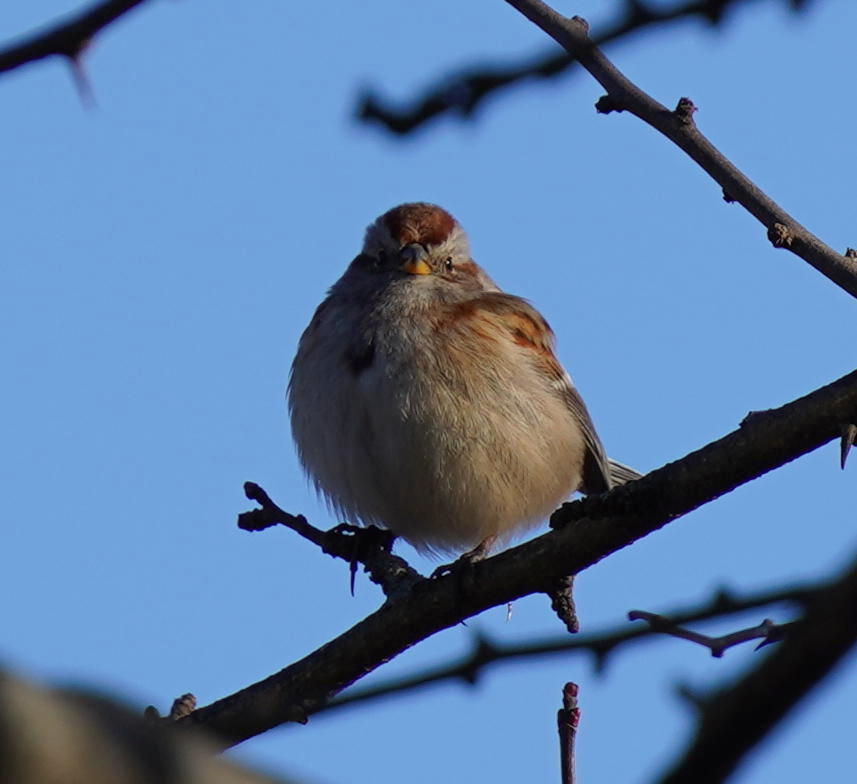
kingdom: Animalia
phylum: Chordata
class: Aves
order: Passeriformes
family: Passerellidae
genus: Spizelloides
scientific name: Spizelloides arborea
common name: American tree sparrow
